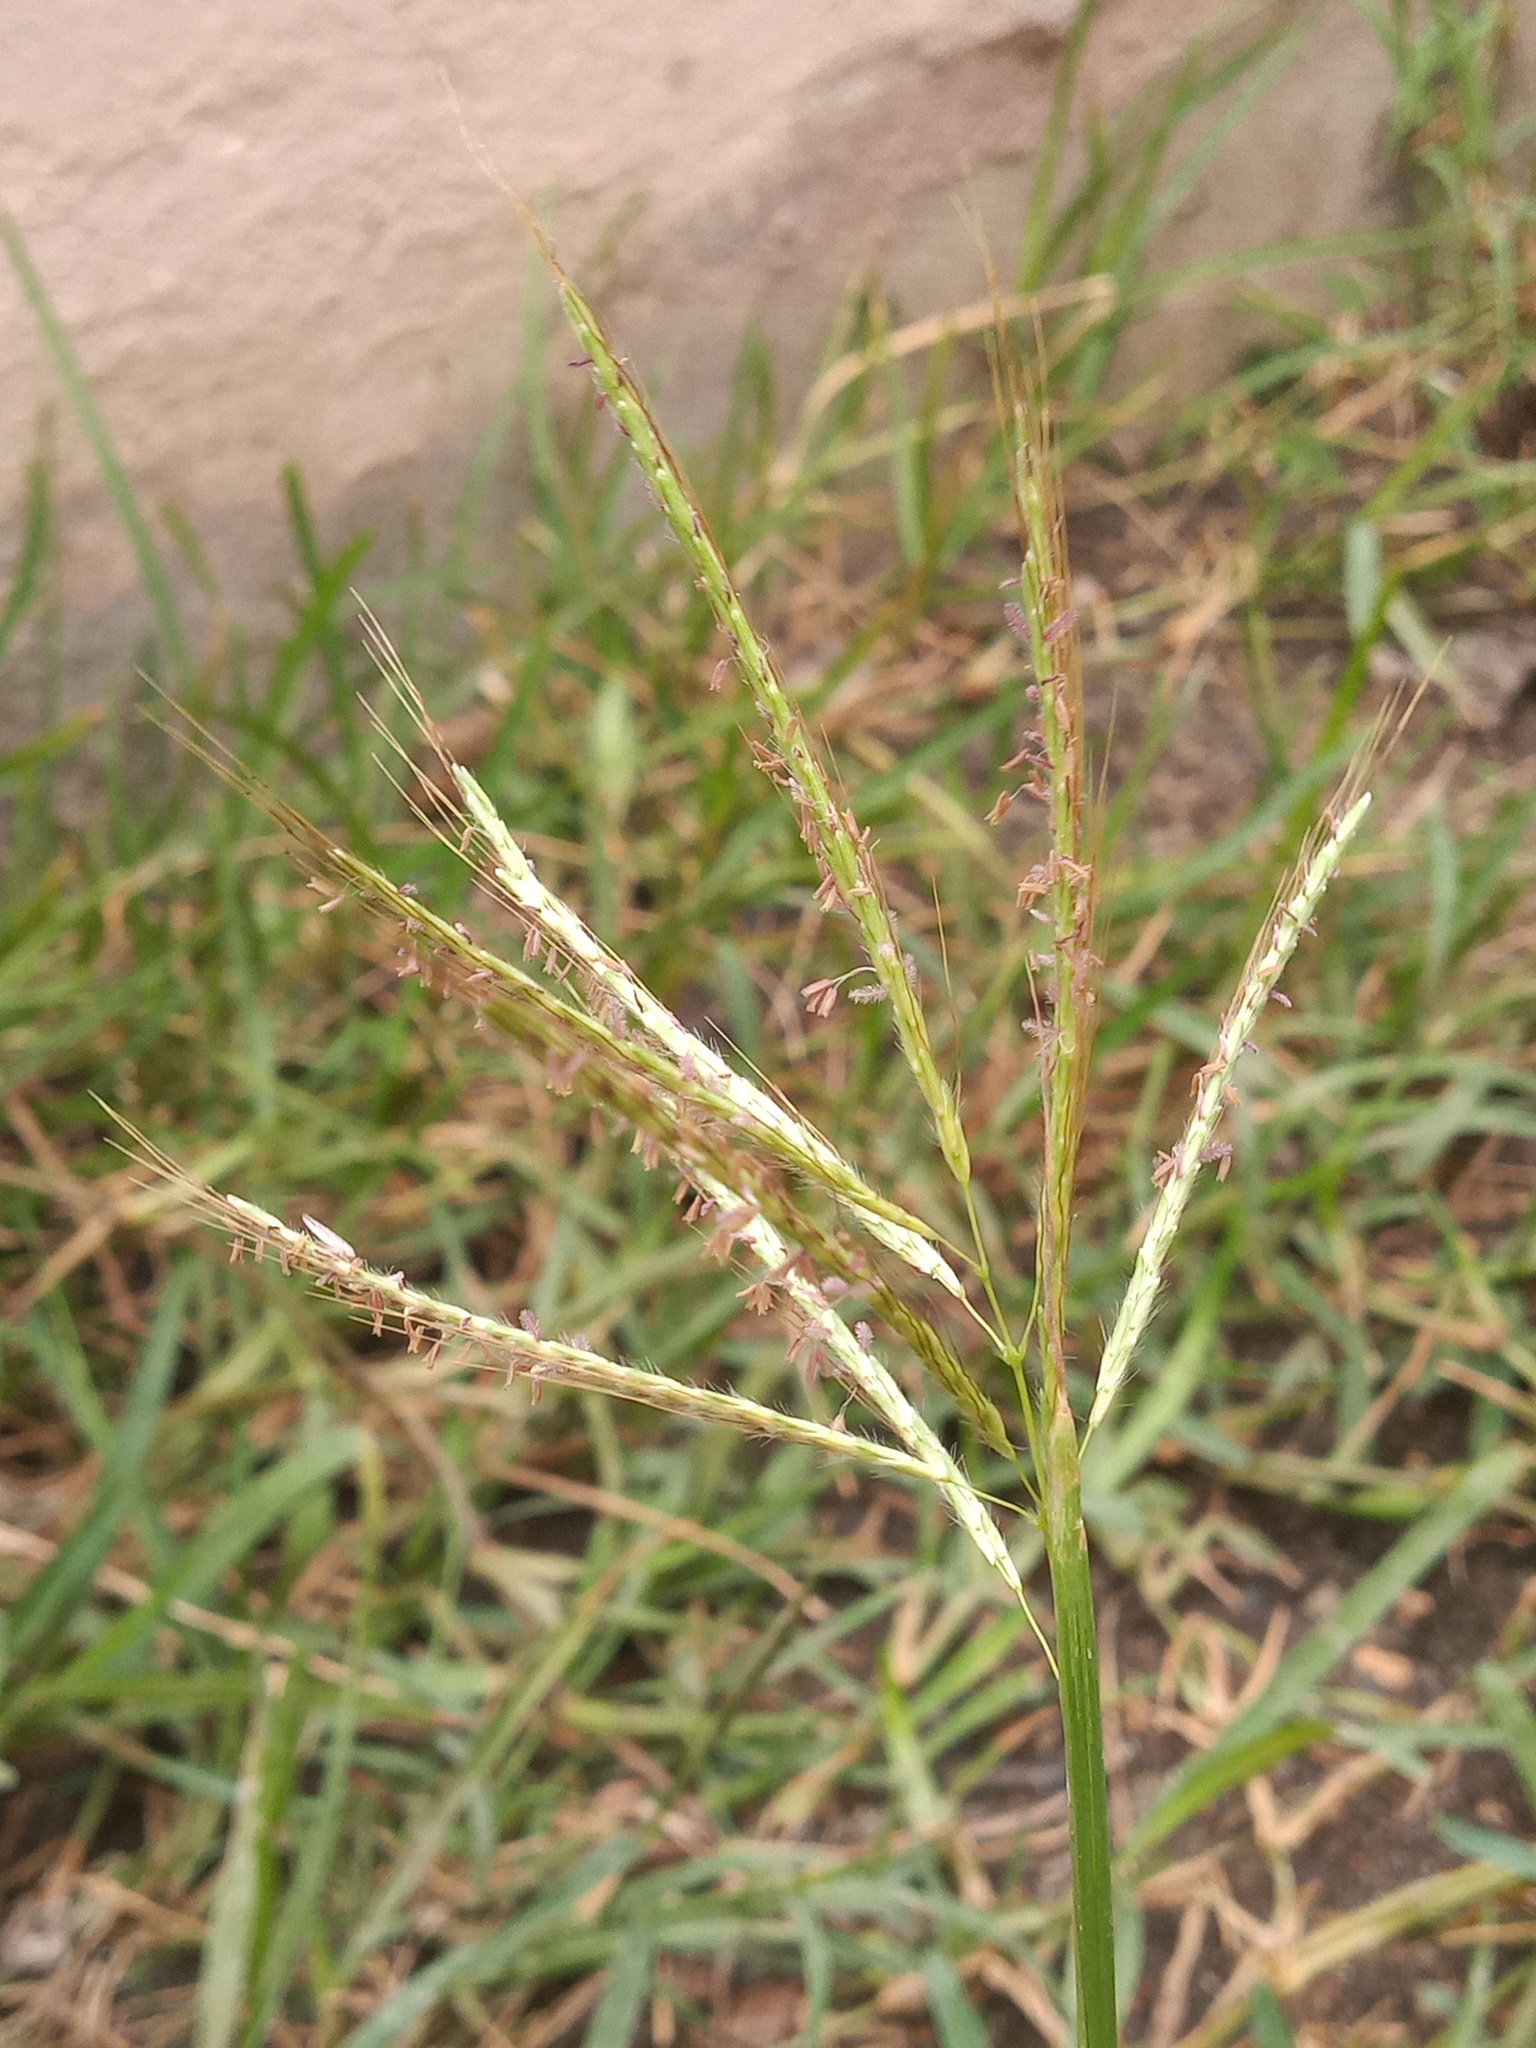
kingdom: Plantae
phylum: Tracheophyta
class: Liliopsida
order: Poales
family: Poaceae
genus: Bothriochloa
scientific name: Bothriochloa bladhii
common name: Caucasian bluestem
